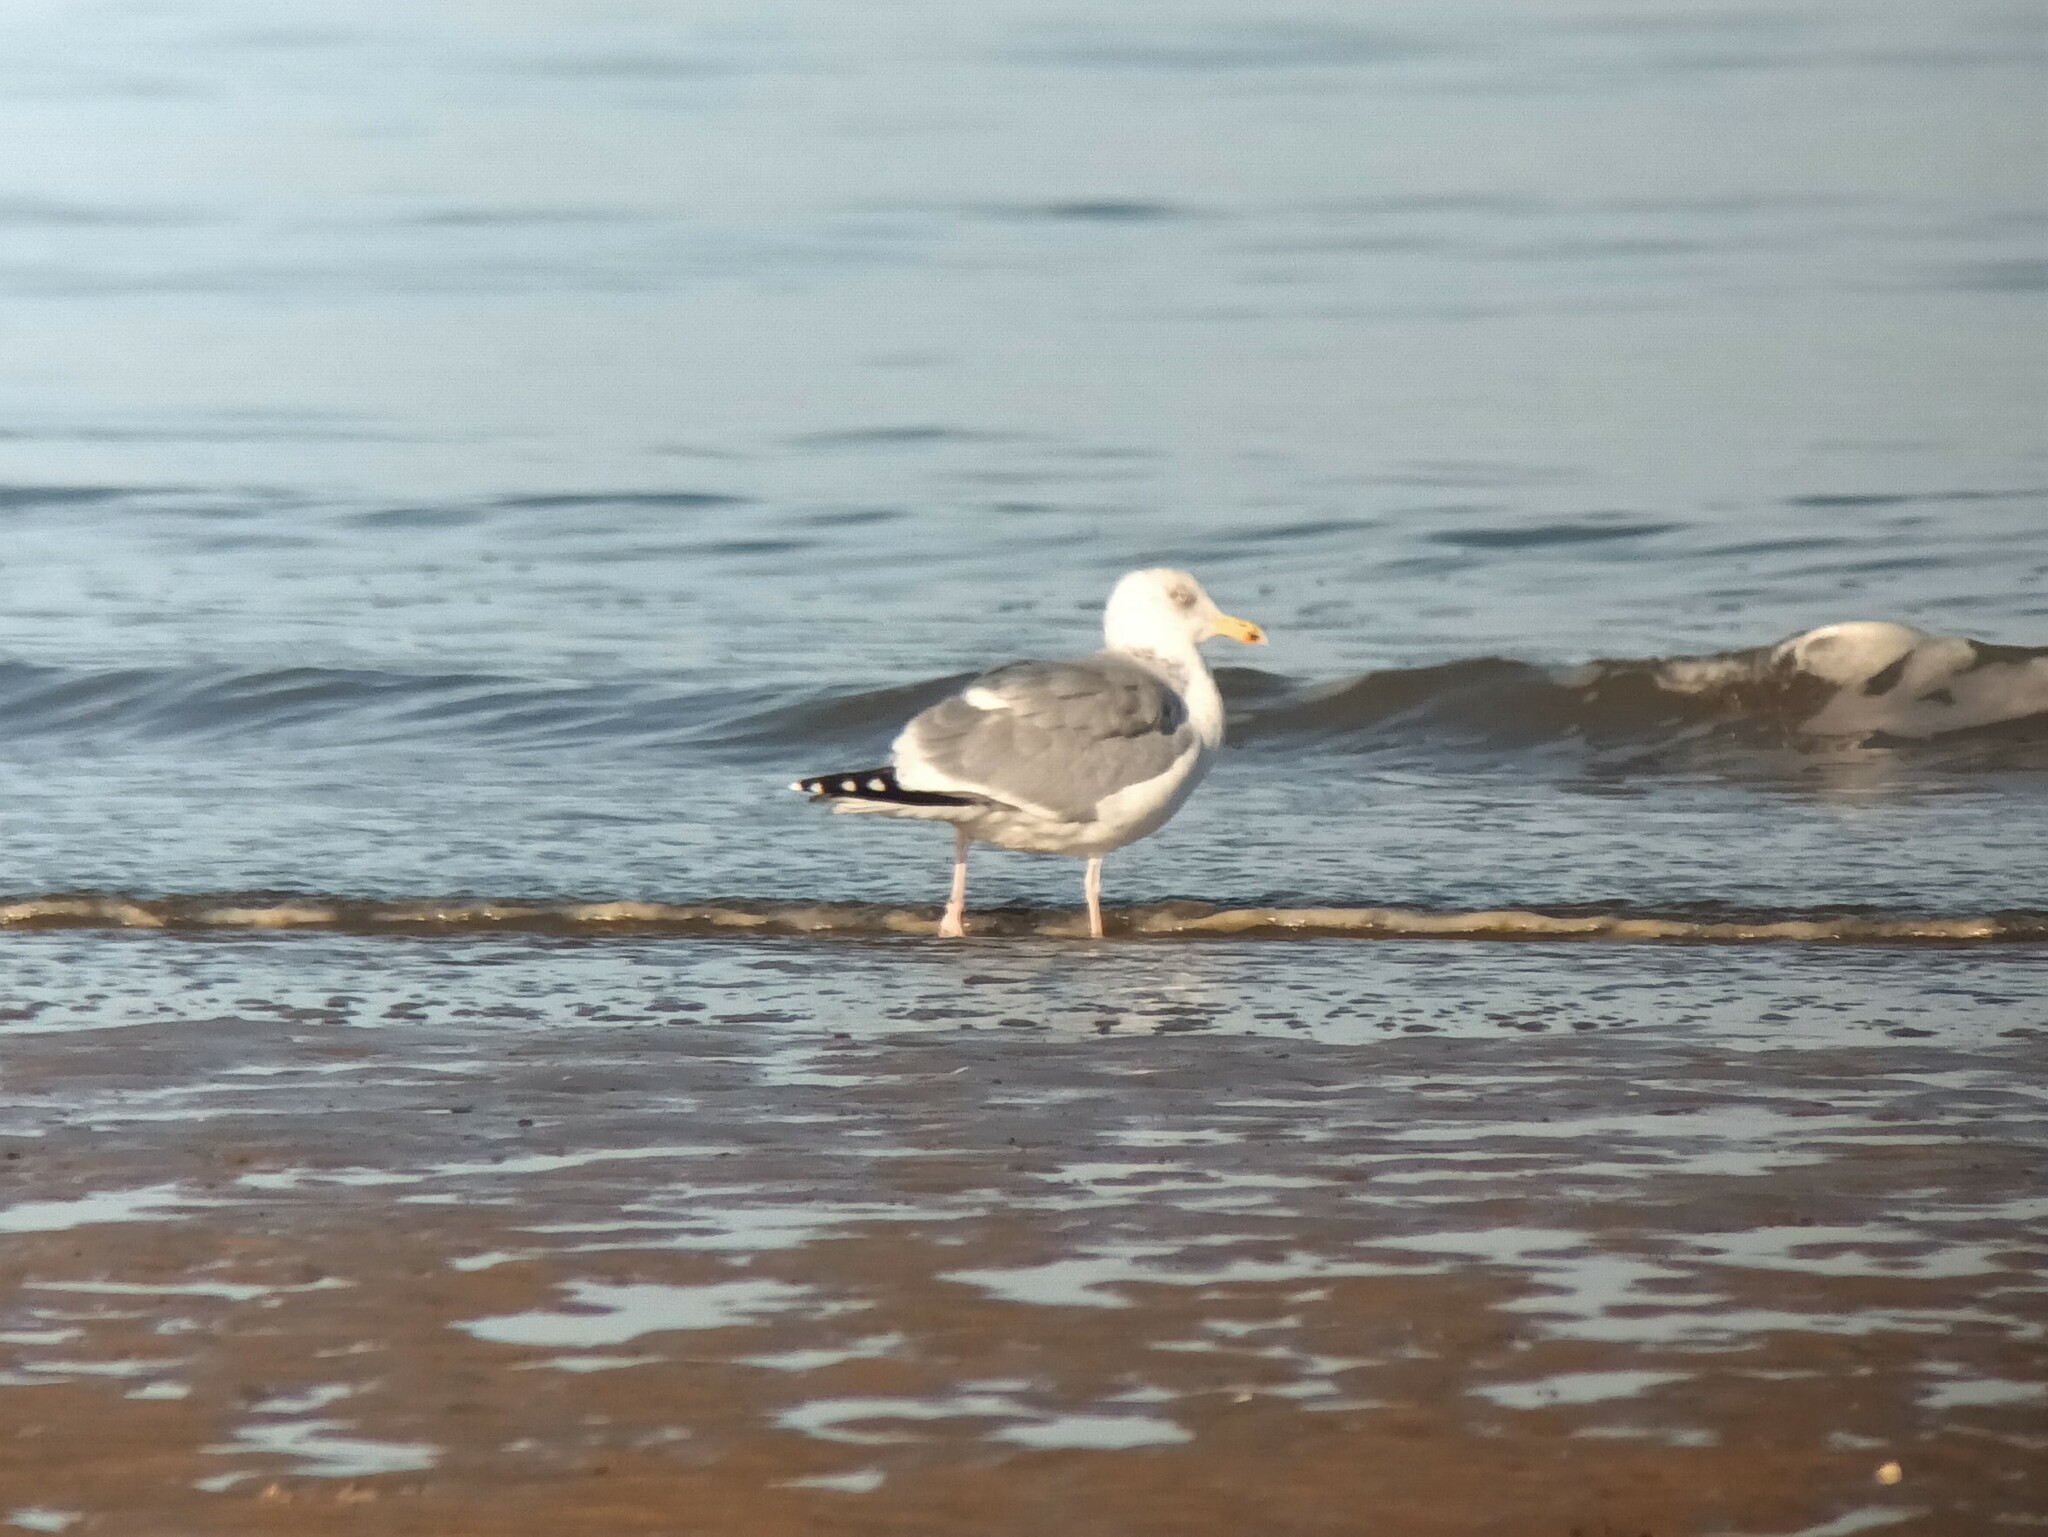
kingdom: Animalia
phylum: Chordata
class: Aves
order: Charadriiformes
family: Laridae
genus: Larus
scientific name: Larus argentatus
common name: Herring gull
